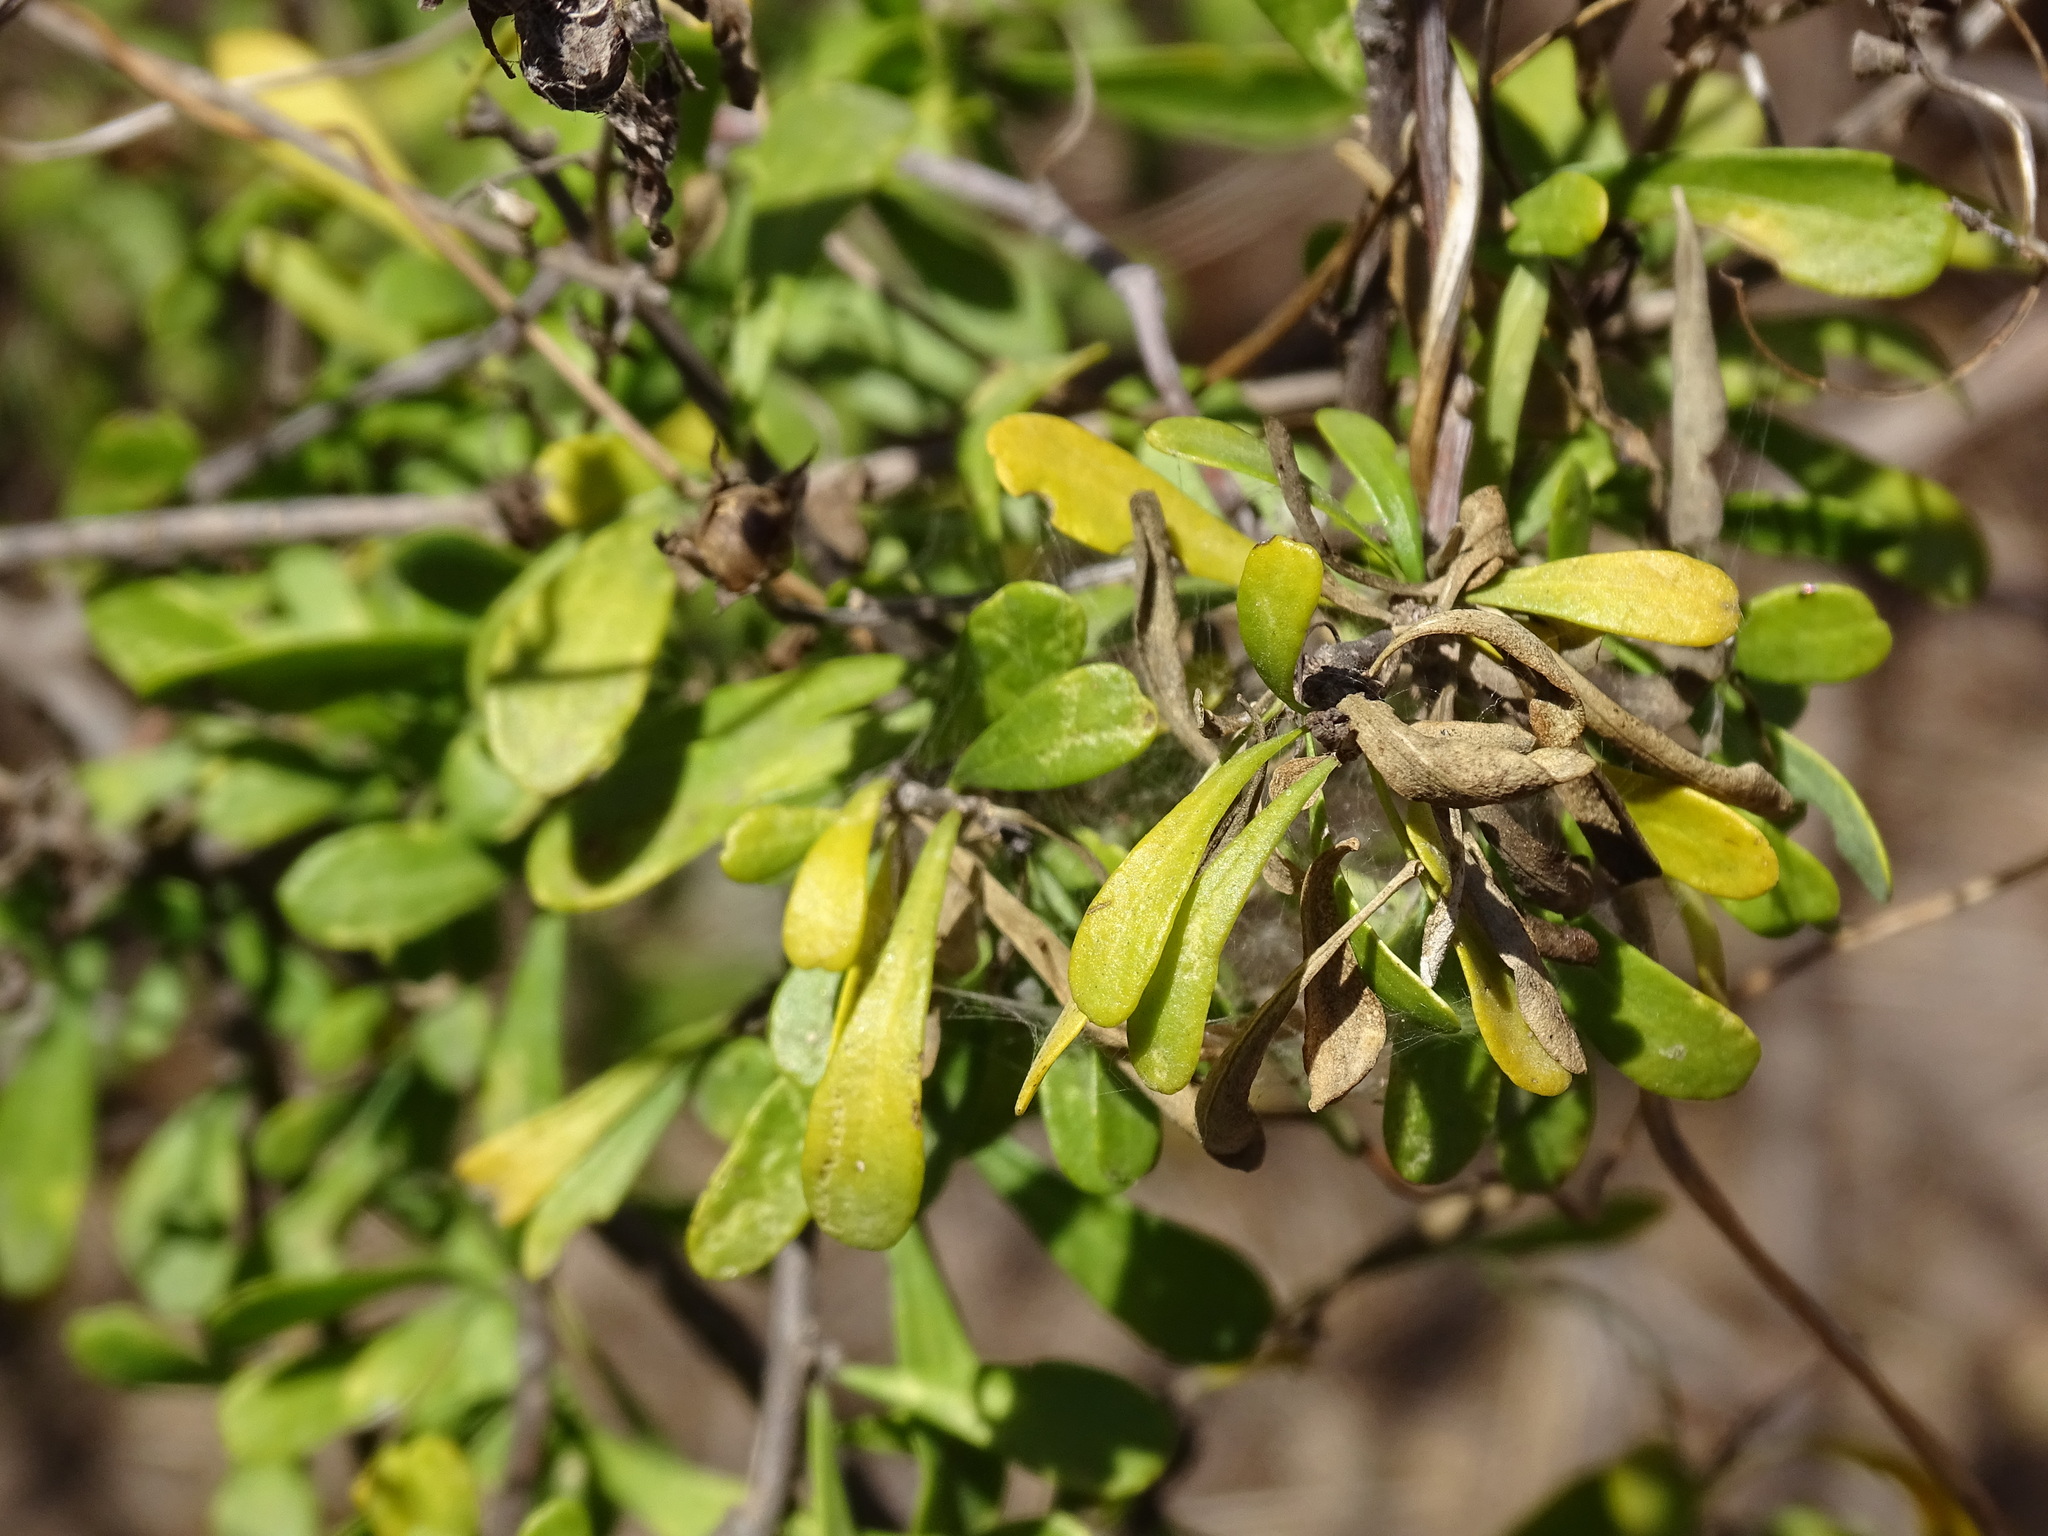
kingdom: Plantae
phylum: Tracheophyta
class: Magnoliopsida
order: Solanales
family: Solanaceae
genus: Lycium
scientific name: Lycium berlandieri
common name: Berlandier wolfberry
